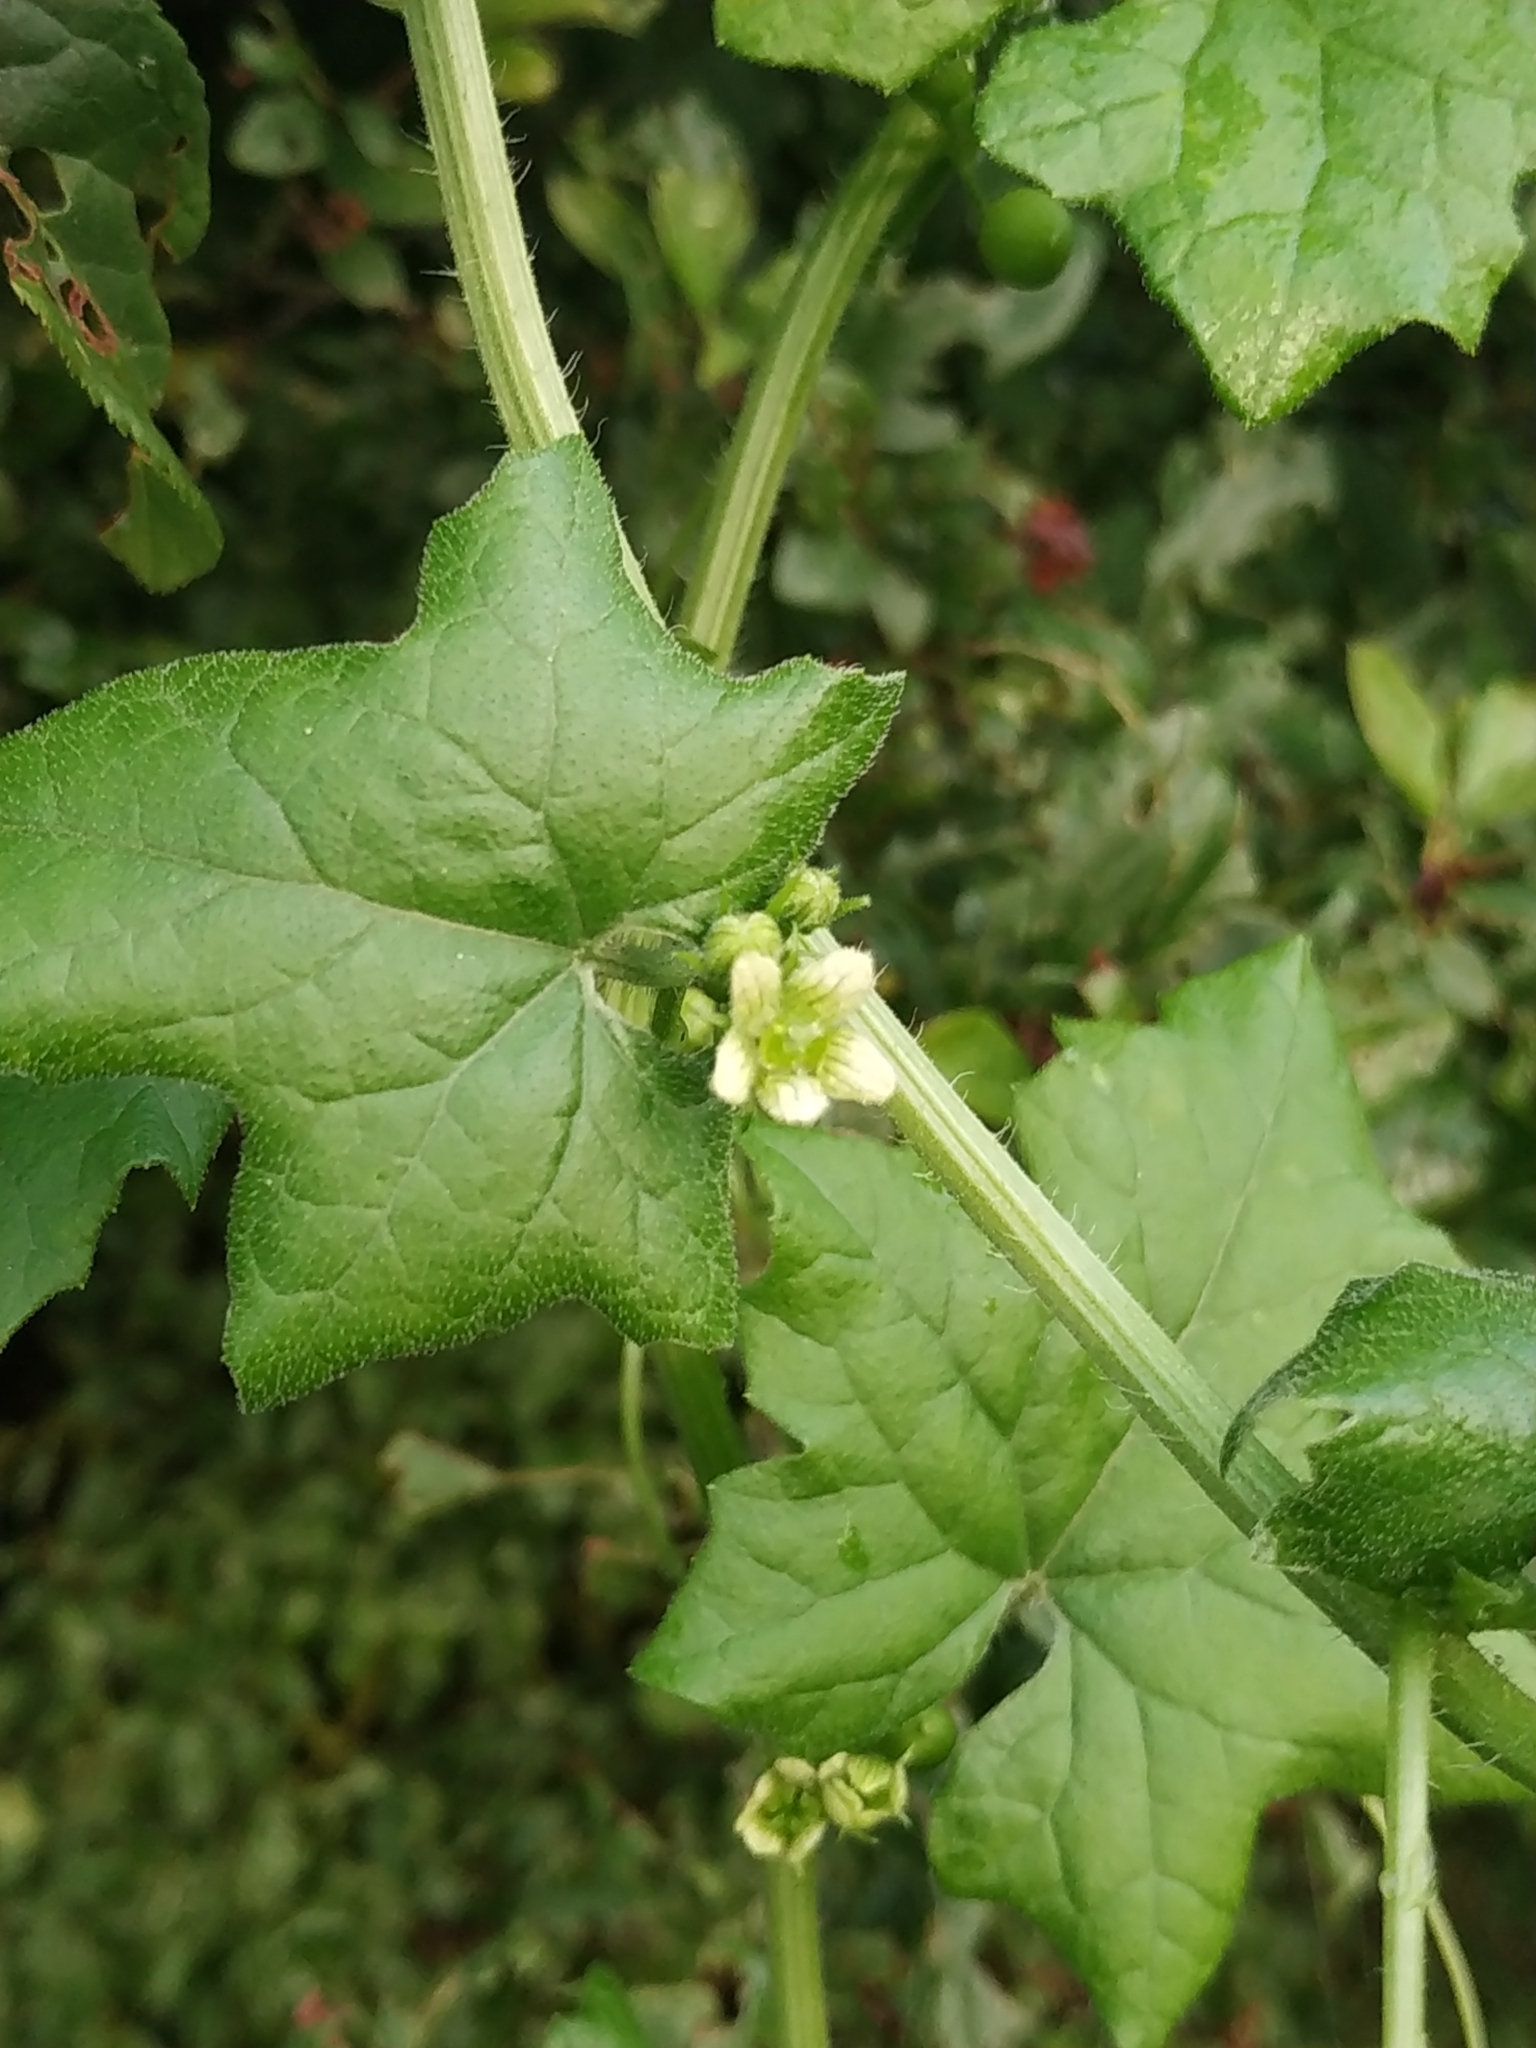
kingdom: Plantae
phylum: Tracheophyta
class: Magnoliopsida
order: Cucurbitales
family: Cucurbitaceae
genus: Bryonia
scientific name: Bryonia cretica
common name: Cretan bryony
